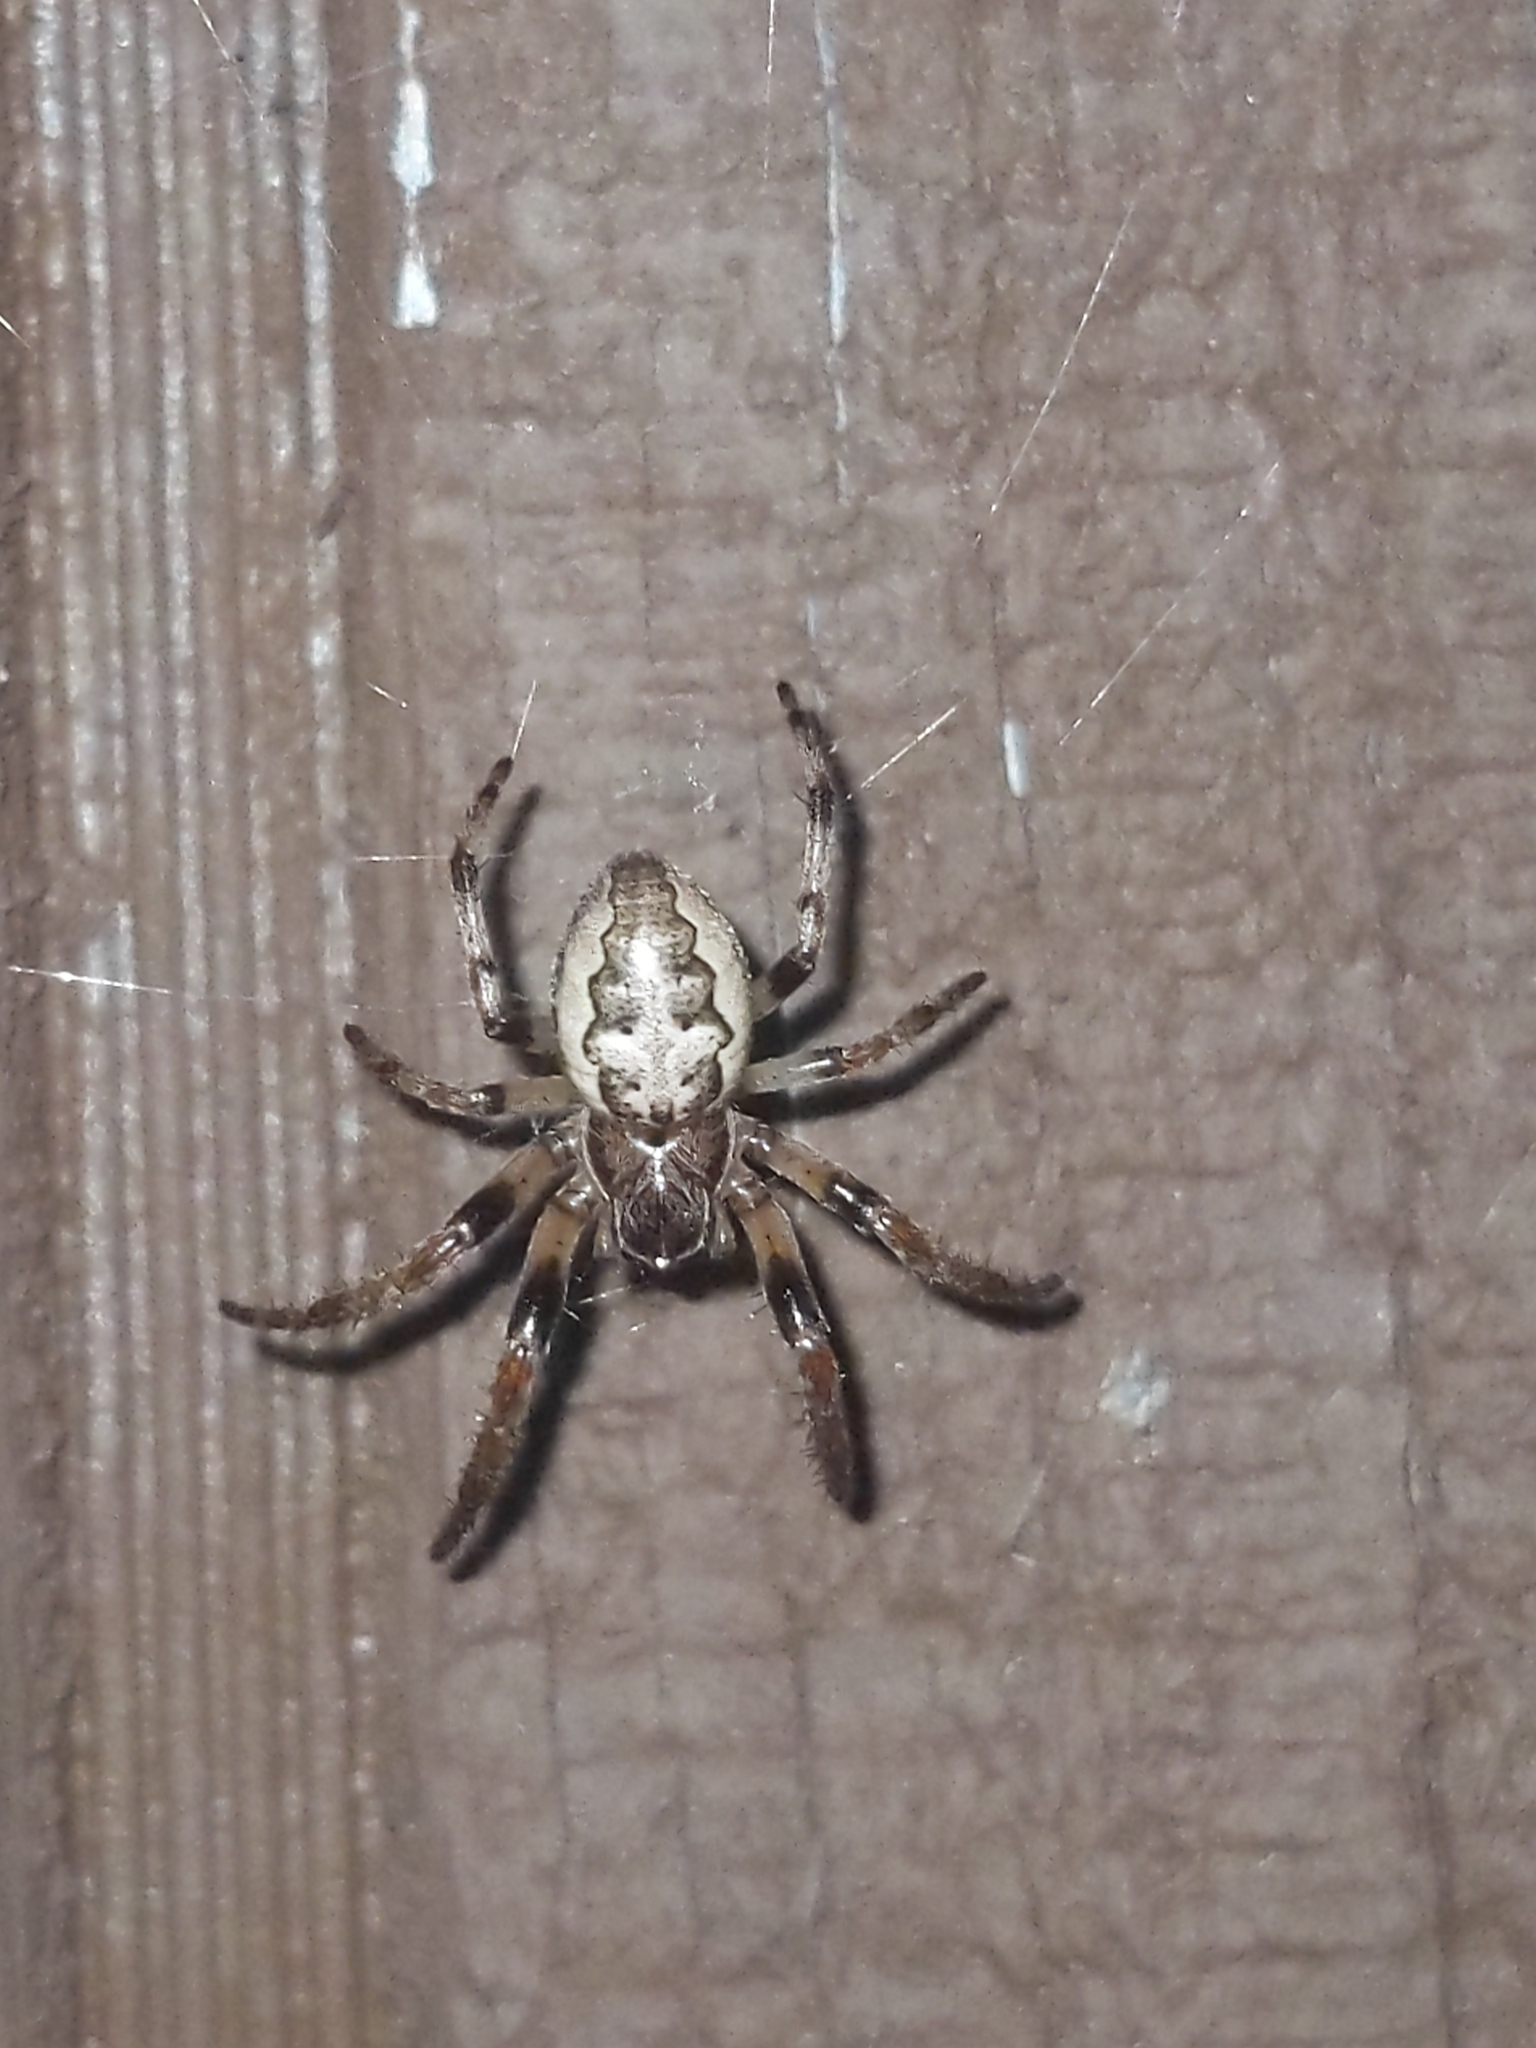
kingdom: Animalia
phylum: Arthropoda
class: Arachnida
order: Araneae
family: Araneidae
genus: Larinioides
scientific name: Larinioides cornutus
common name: Furrow orbweaver
